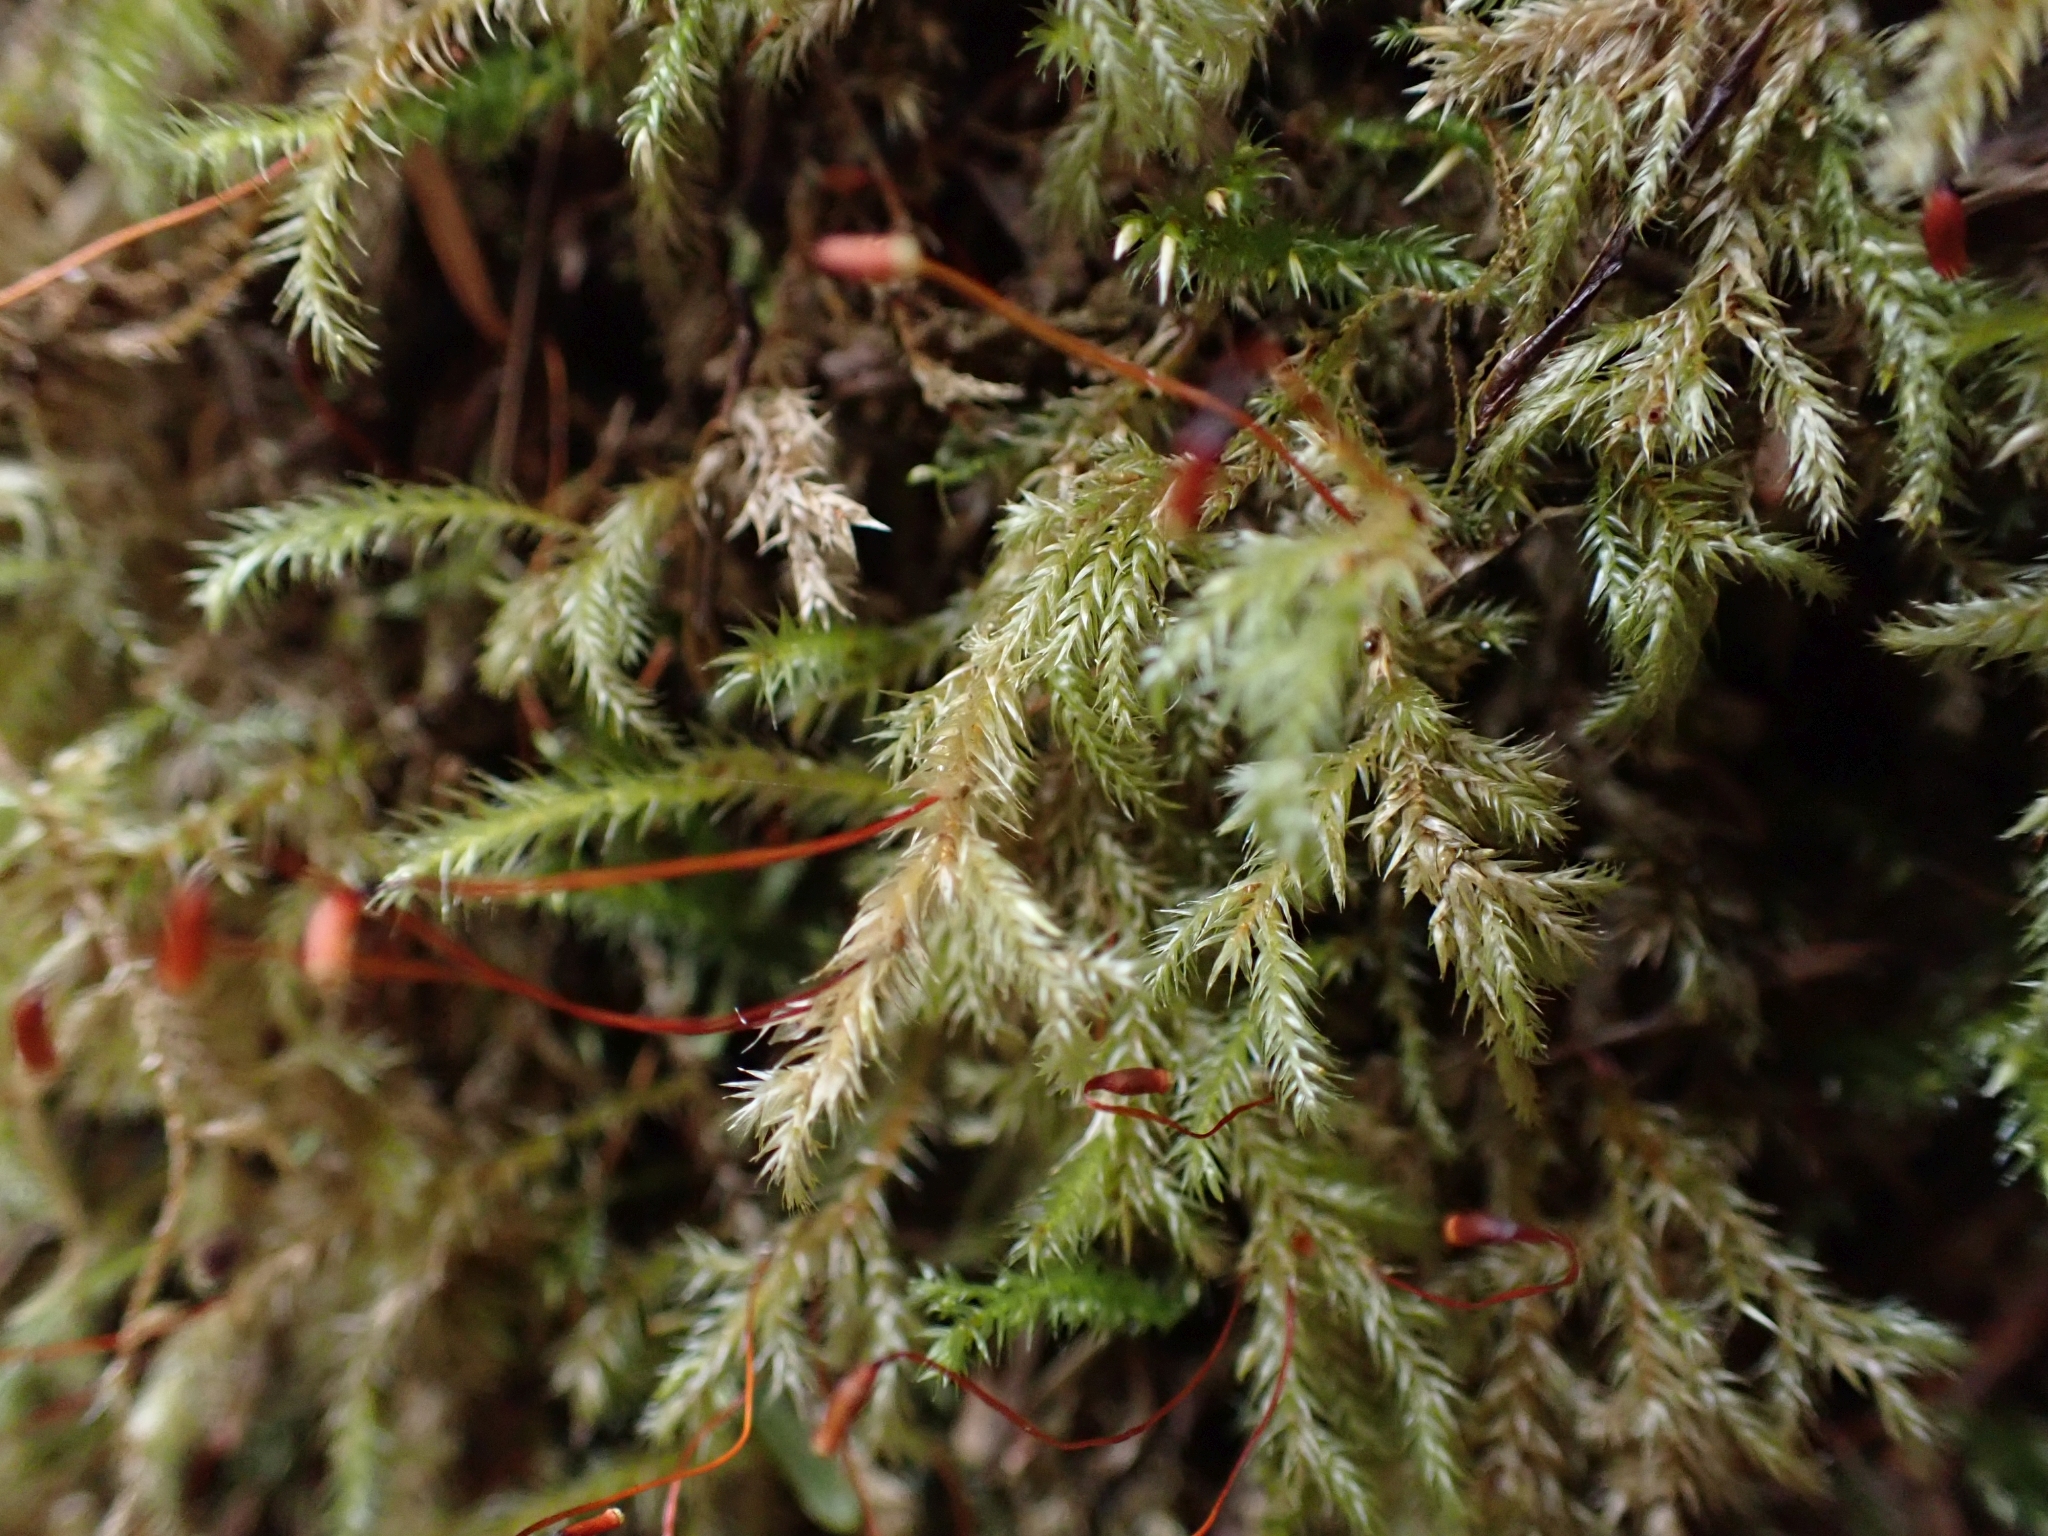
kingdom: Plantae
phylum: Bryophyta
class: Bryopsida
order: Hypnales
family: Lembophyllaceae
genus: Pseudisothecium
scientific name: Pseudisothecium stoloniferum
